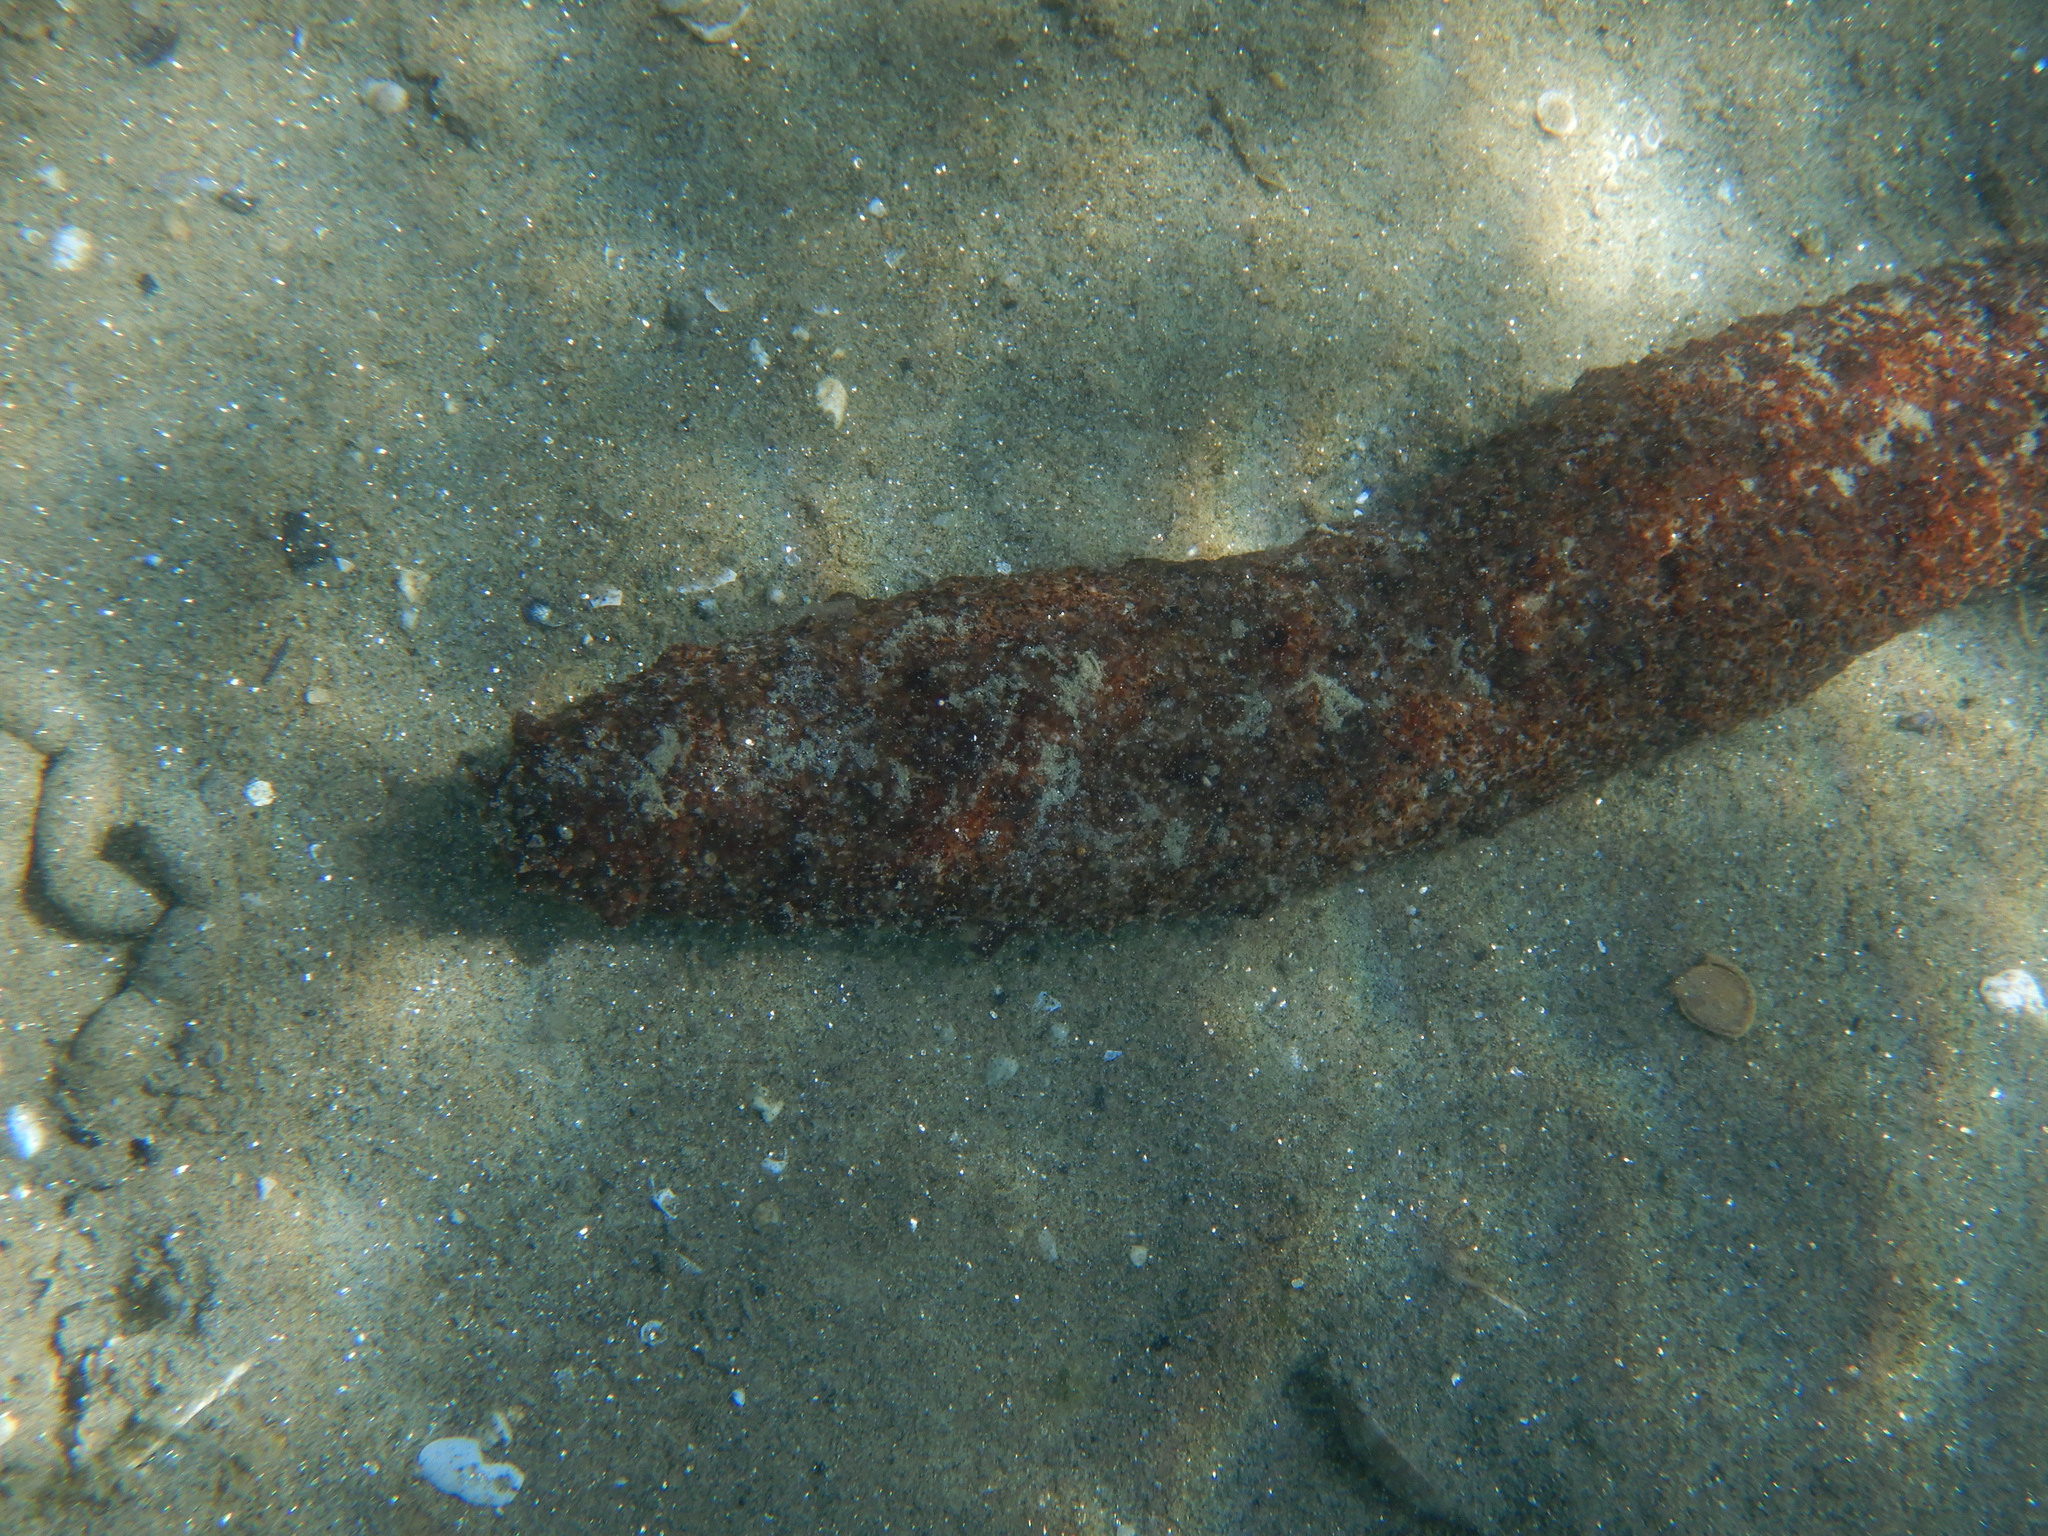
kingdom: Animalia
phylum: Echinodermata
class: Holothuroidea
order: Holothuriida
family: Holothuriidae
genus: Holothuria
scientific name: Holothuria
